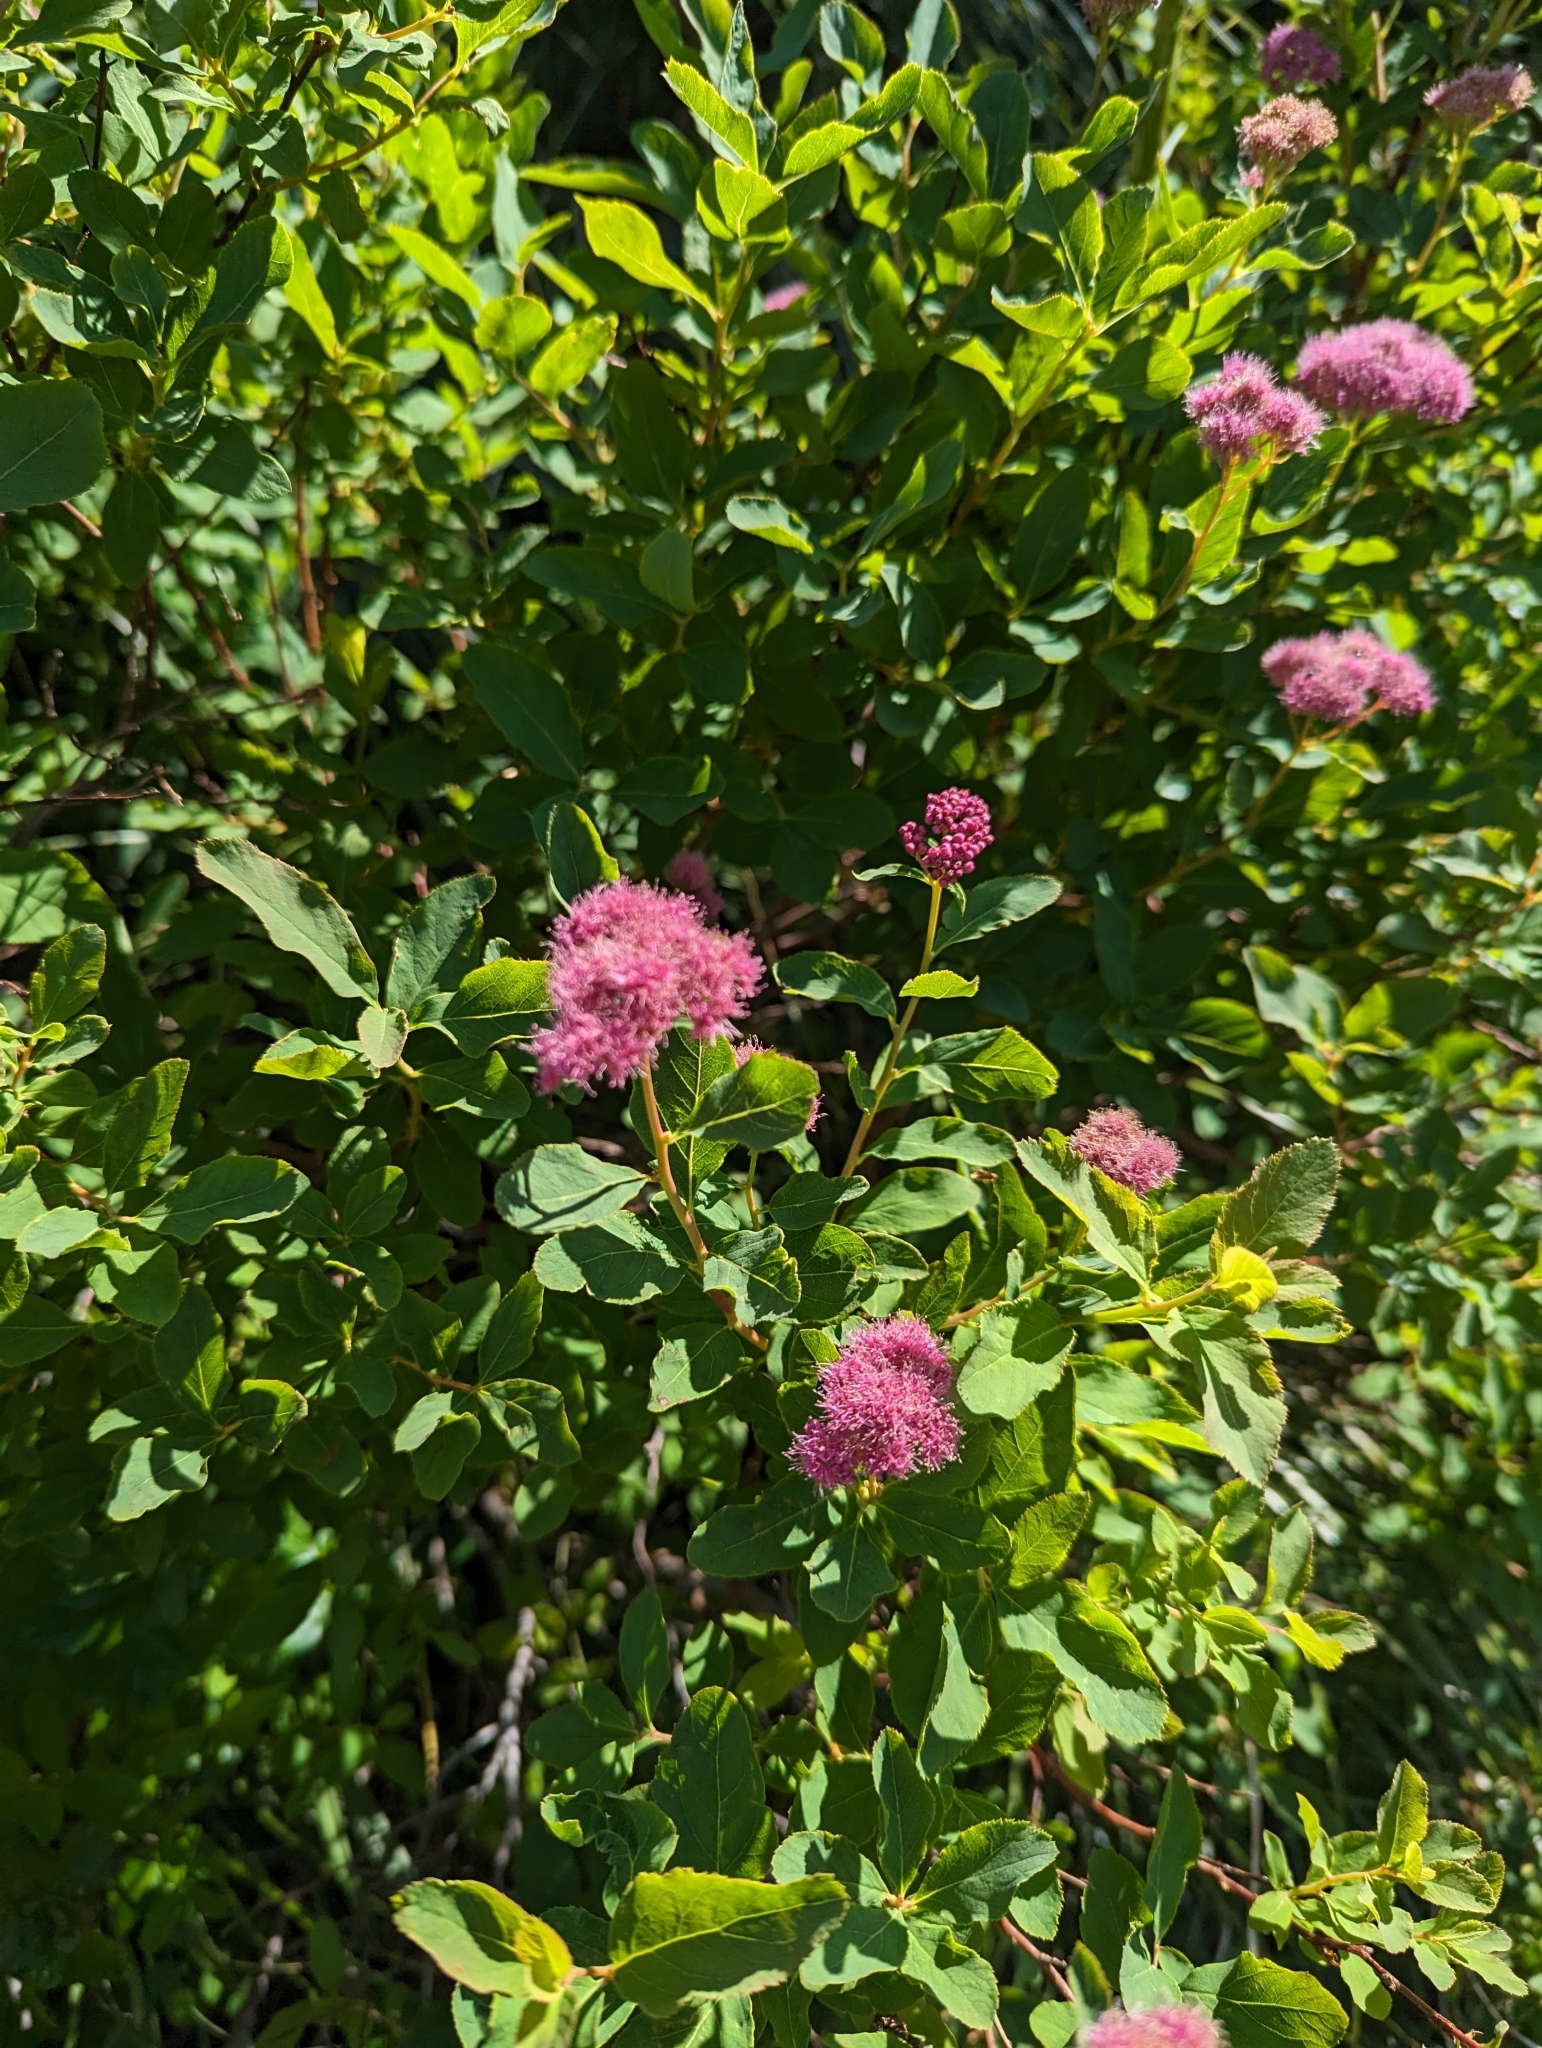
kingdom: Plantae
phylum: Tracheophyta
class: Magnoliopsida
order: Rosales
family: Rosaceae
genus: Spiraea
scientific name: Spiraea splendens
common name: Subalpine meadowsweet
